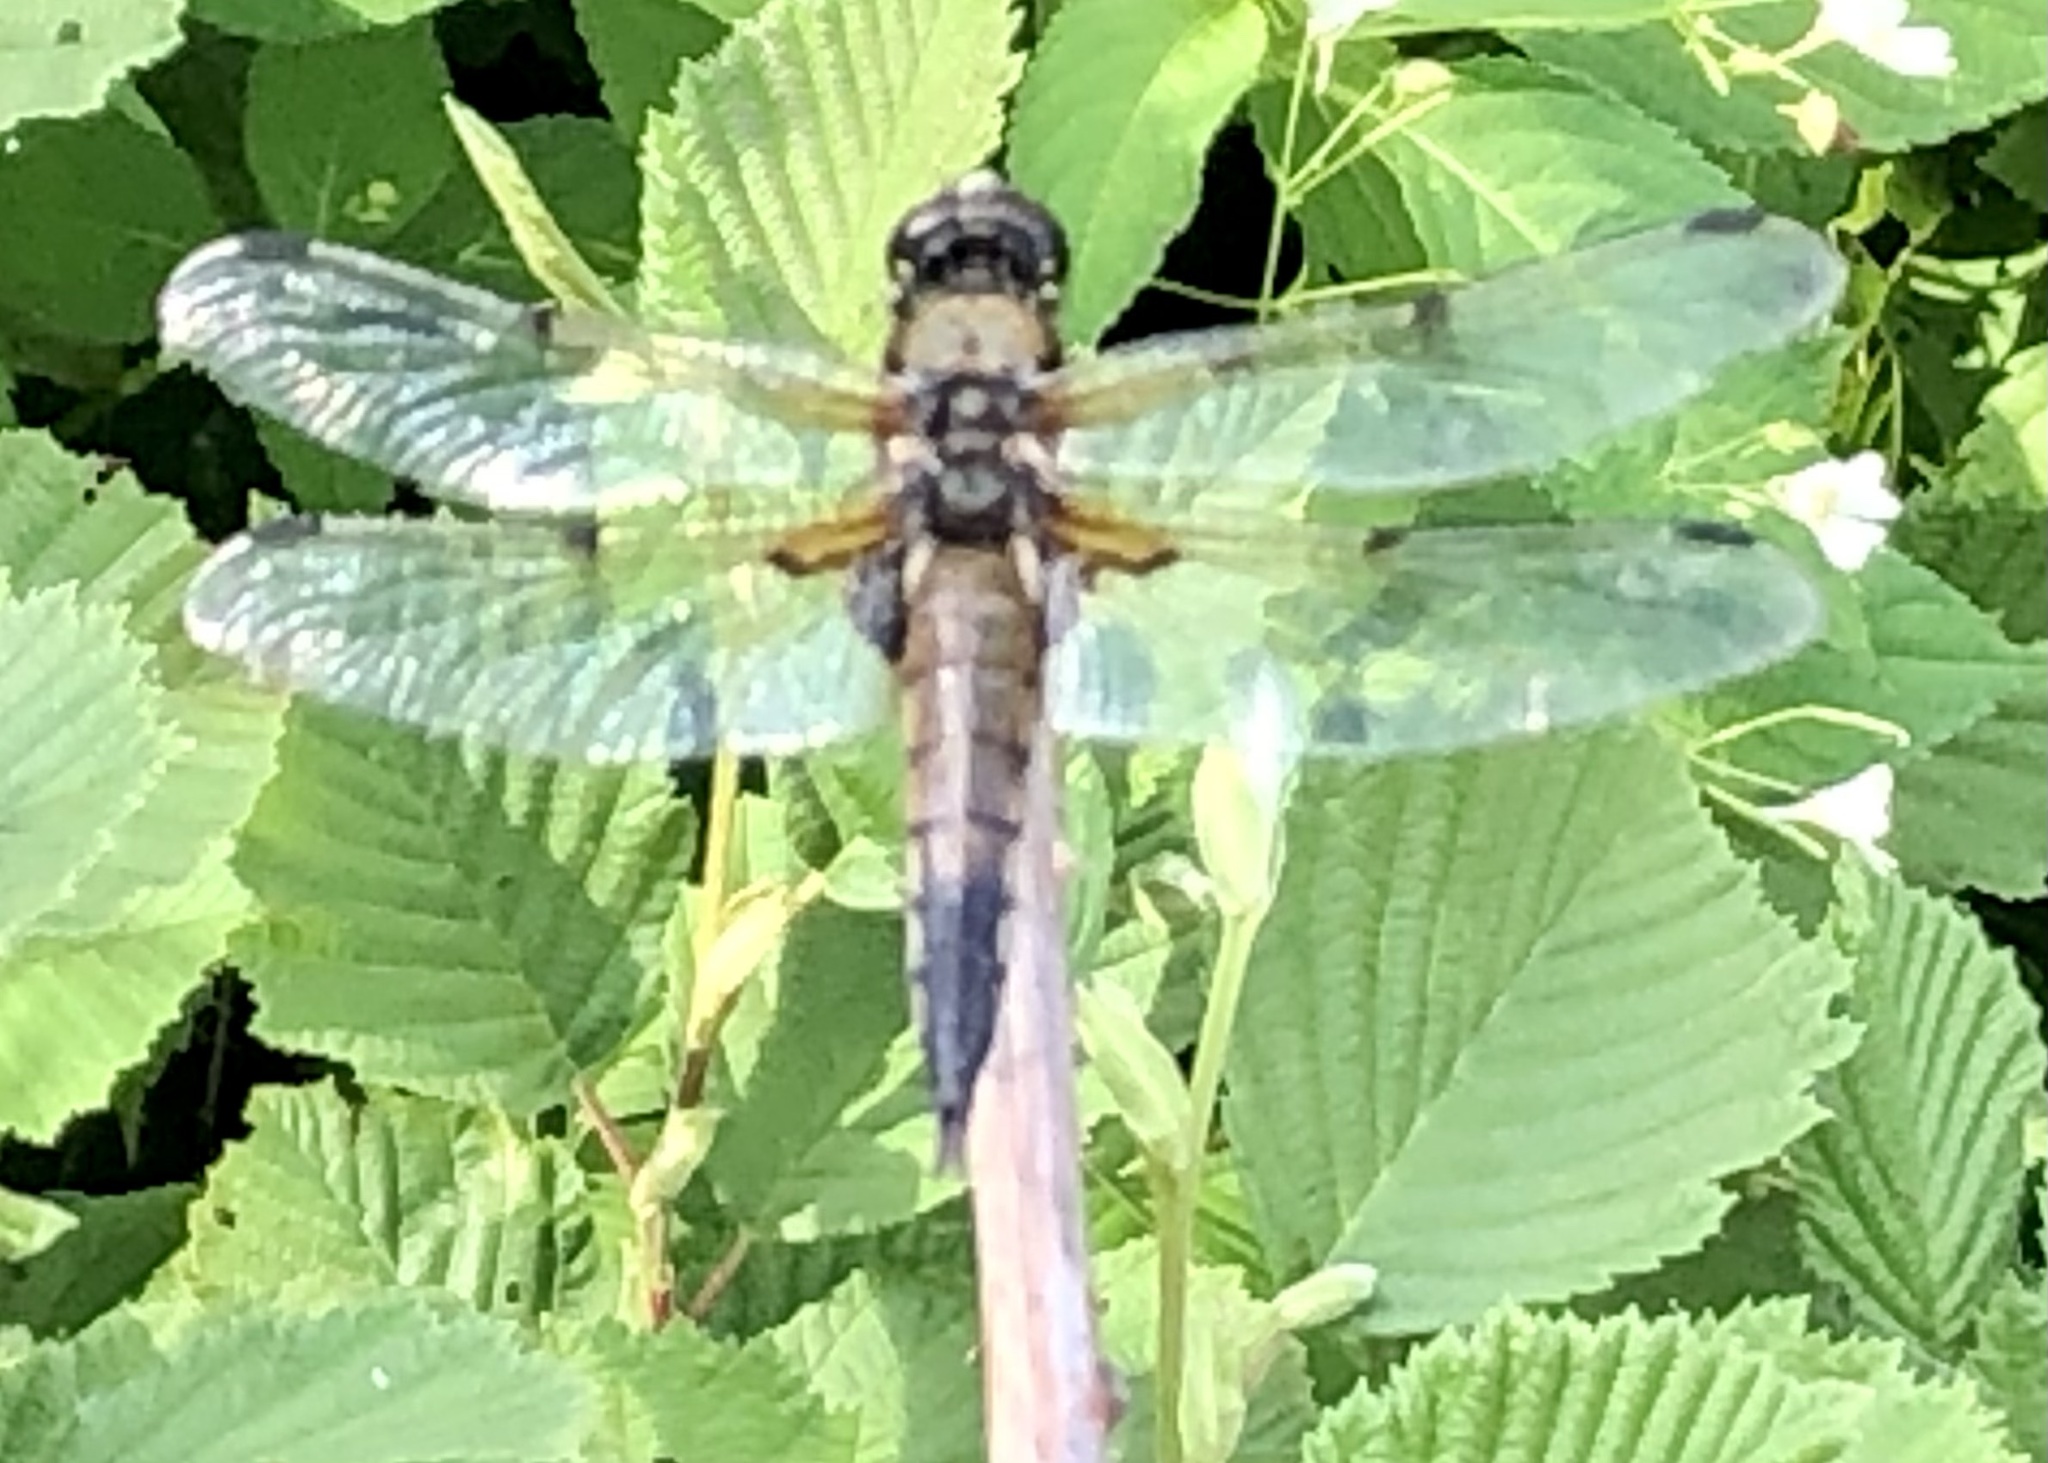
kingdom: Animalia
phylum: Arthropoda
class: Insecta
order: Odonata
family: Libellulidae
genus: Libellula
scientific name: Libellula quadrimaculata
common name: Four-spotted chaser
